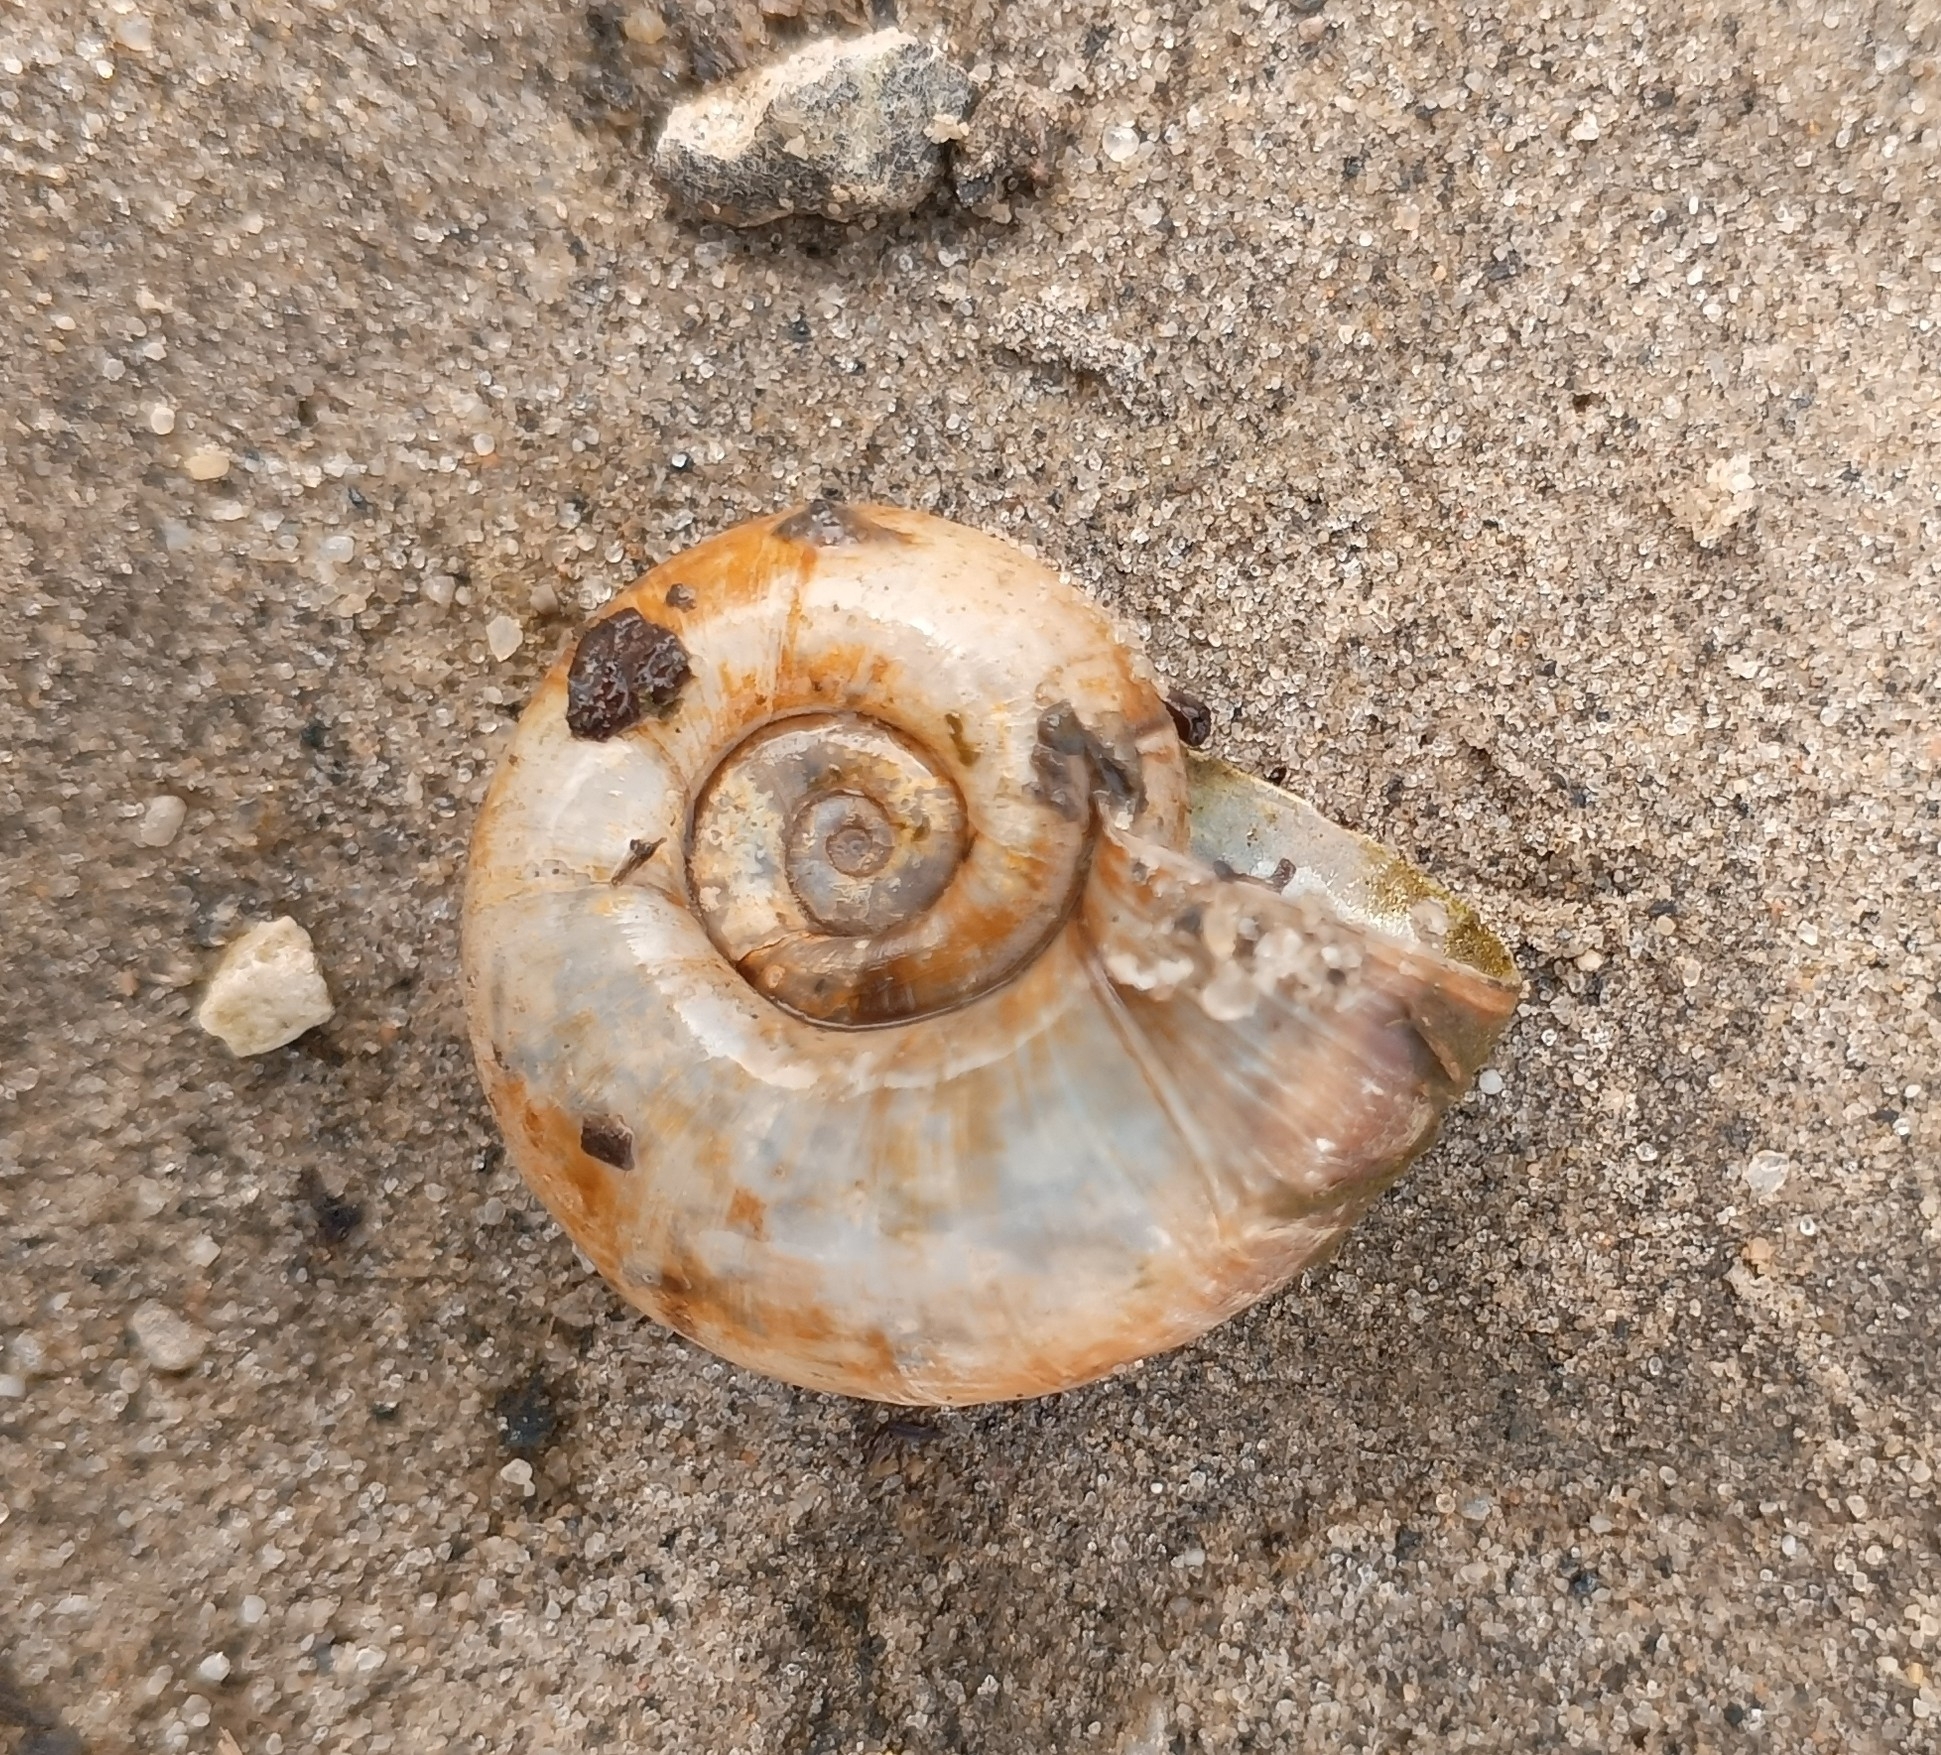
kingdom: Animalia
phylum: Mollusca
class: Gastropoda
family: Planorbidae
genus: Planorbarius
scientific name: Planorbarius corneus
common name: Great ramshorn
